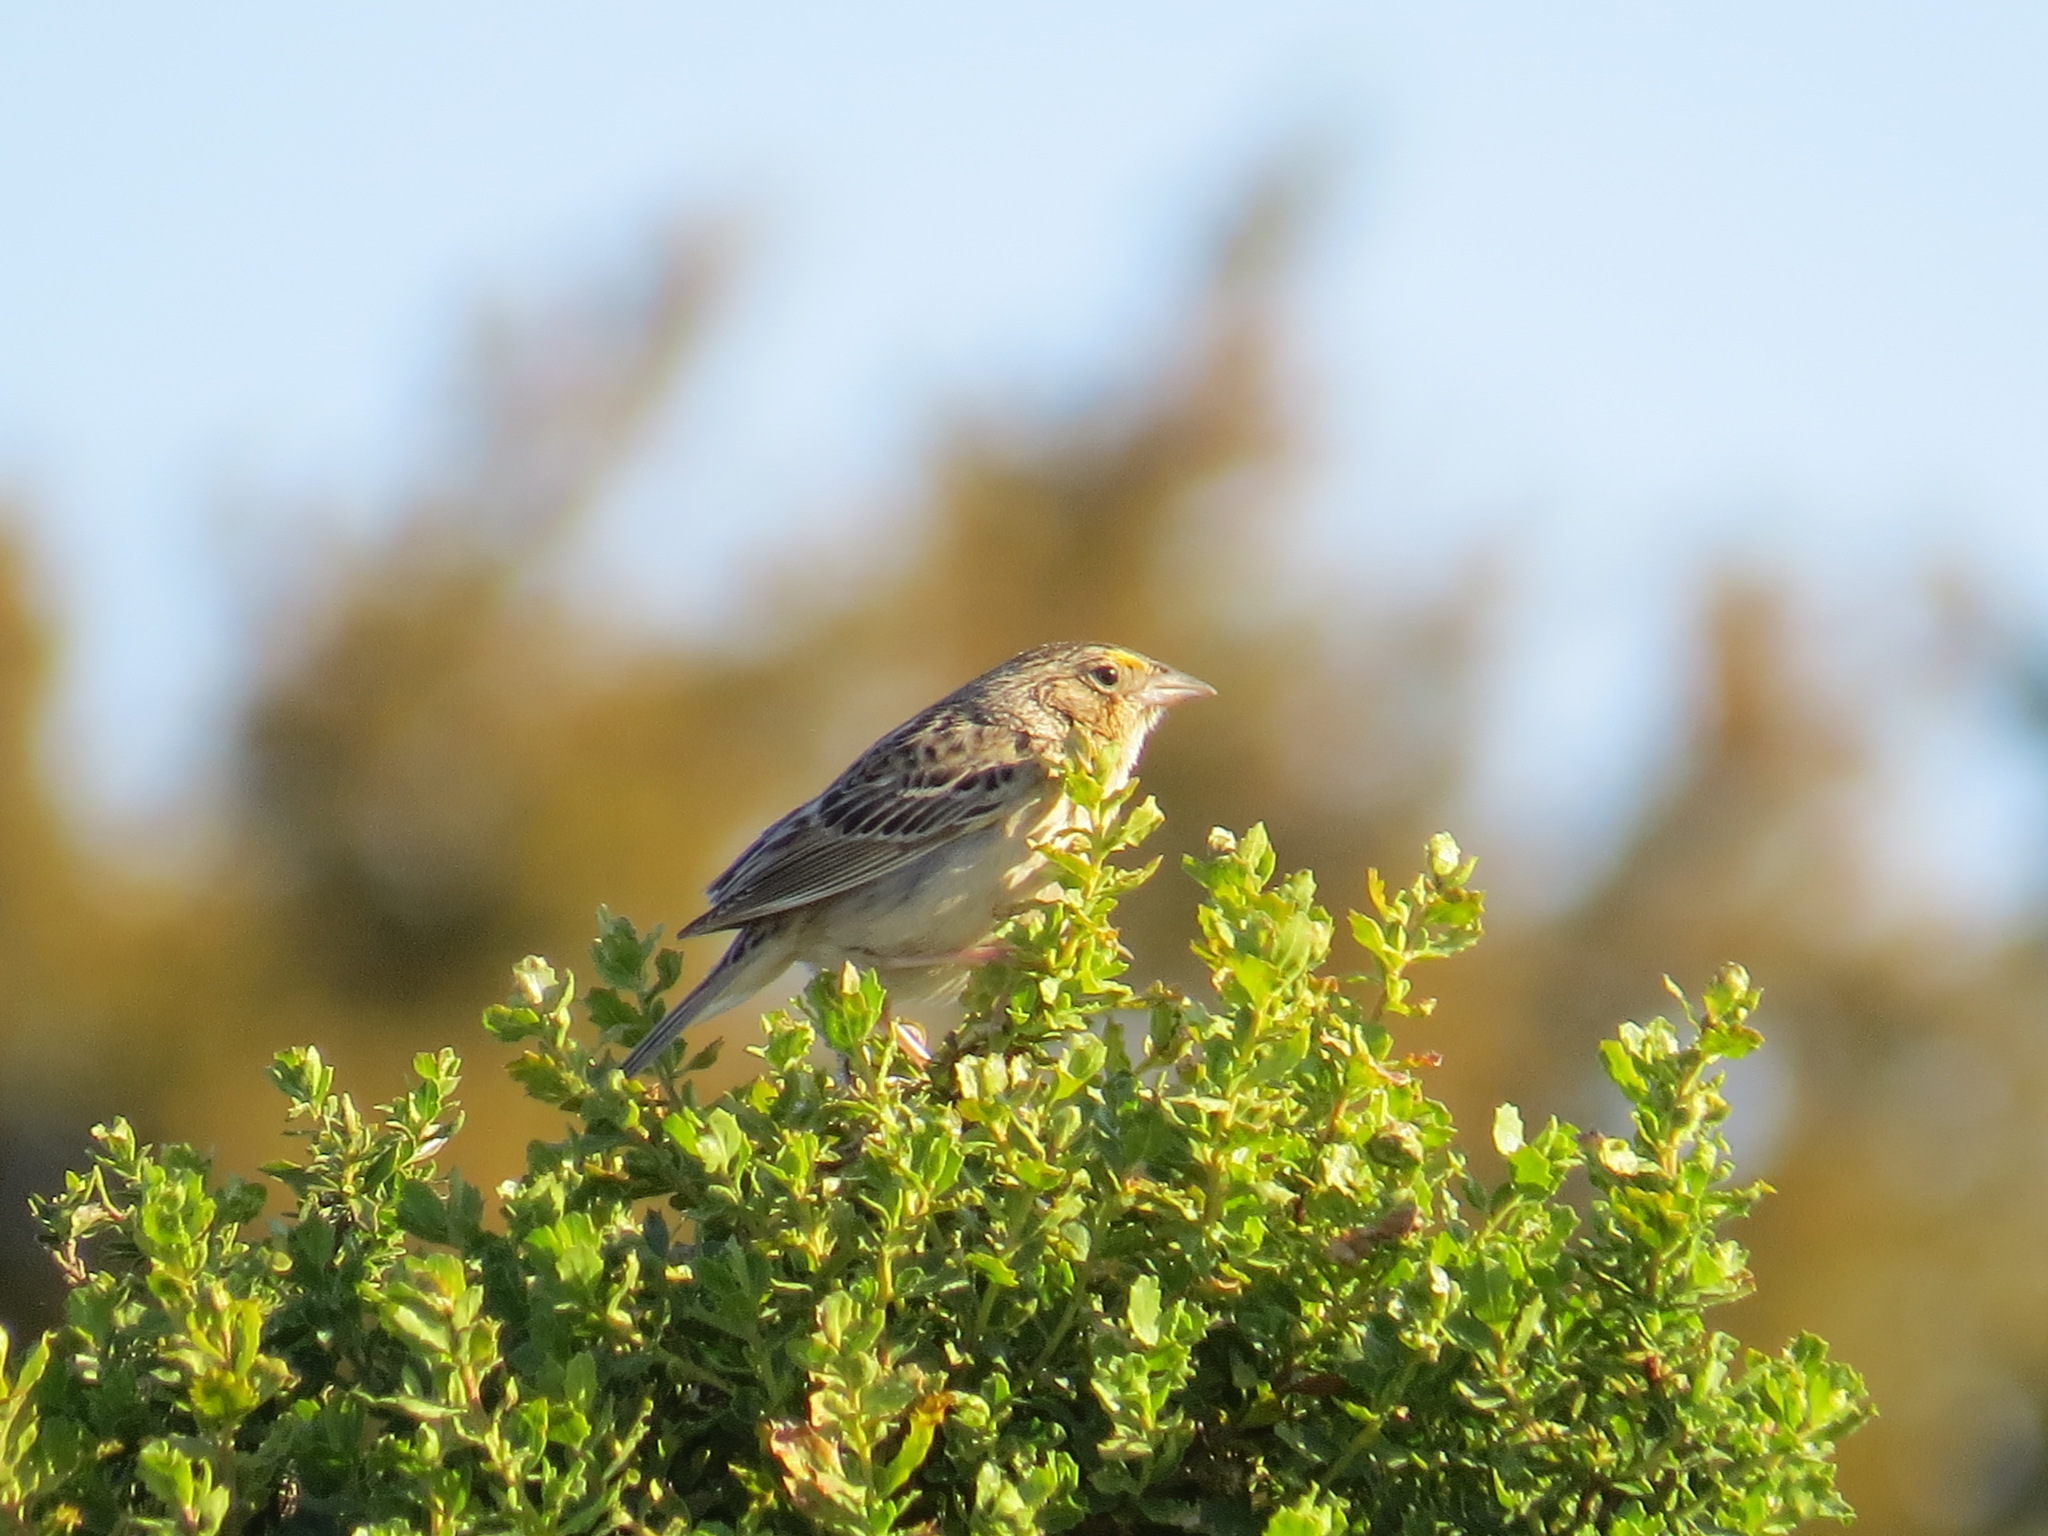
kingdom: Animalia
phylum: Chordata
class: Aves
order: Passeriformes
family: Passerellidae
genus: Ammodramus
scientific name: Ammodramus savannarum
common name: Grasshopper sparrow
